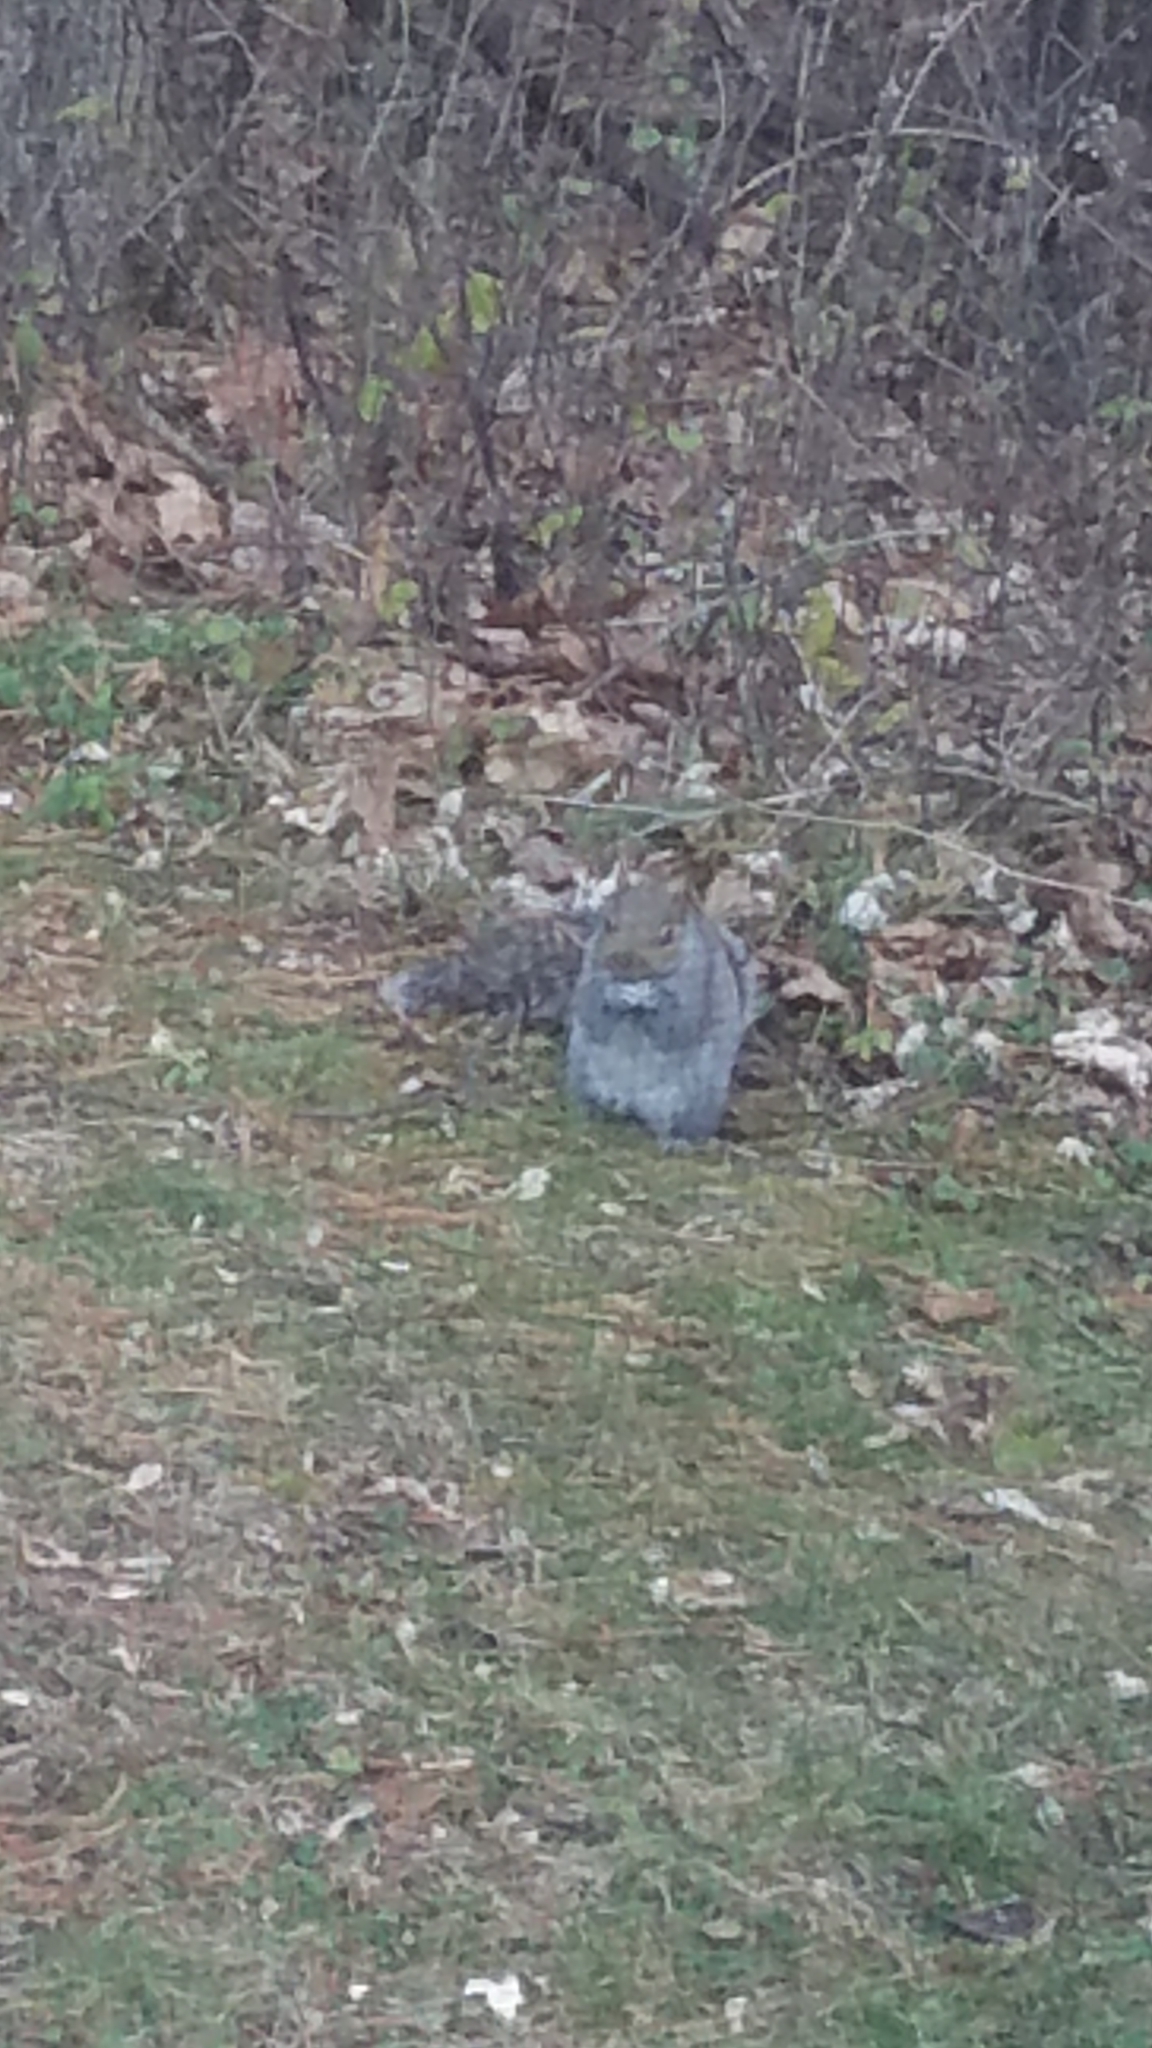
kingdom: Animalia
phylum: Chordata
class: Mammalia
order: Rodentia
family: Sciuridae
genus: Sciurus
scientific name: Sciurus carolinensis
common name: Eastern gray squirrel
